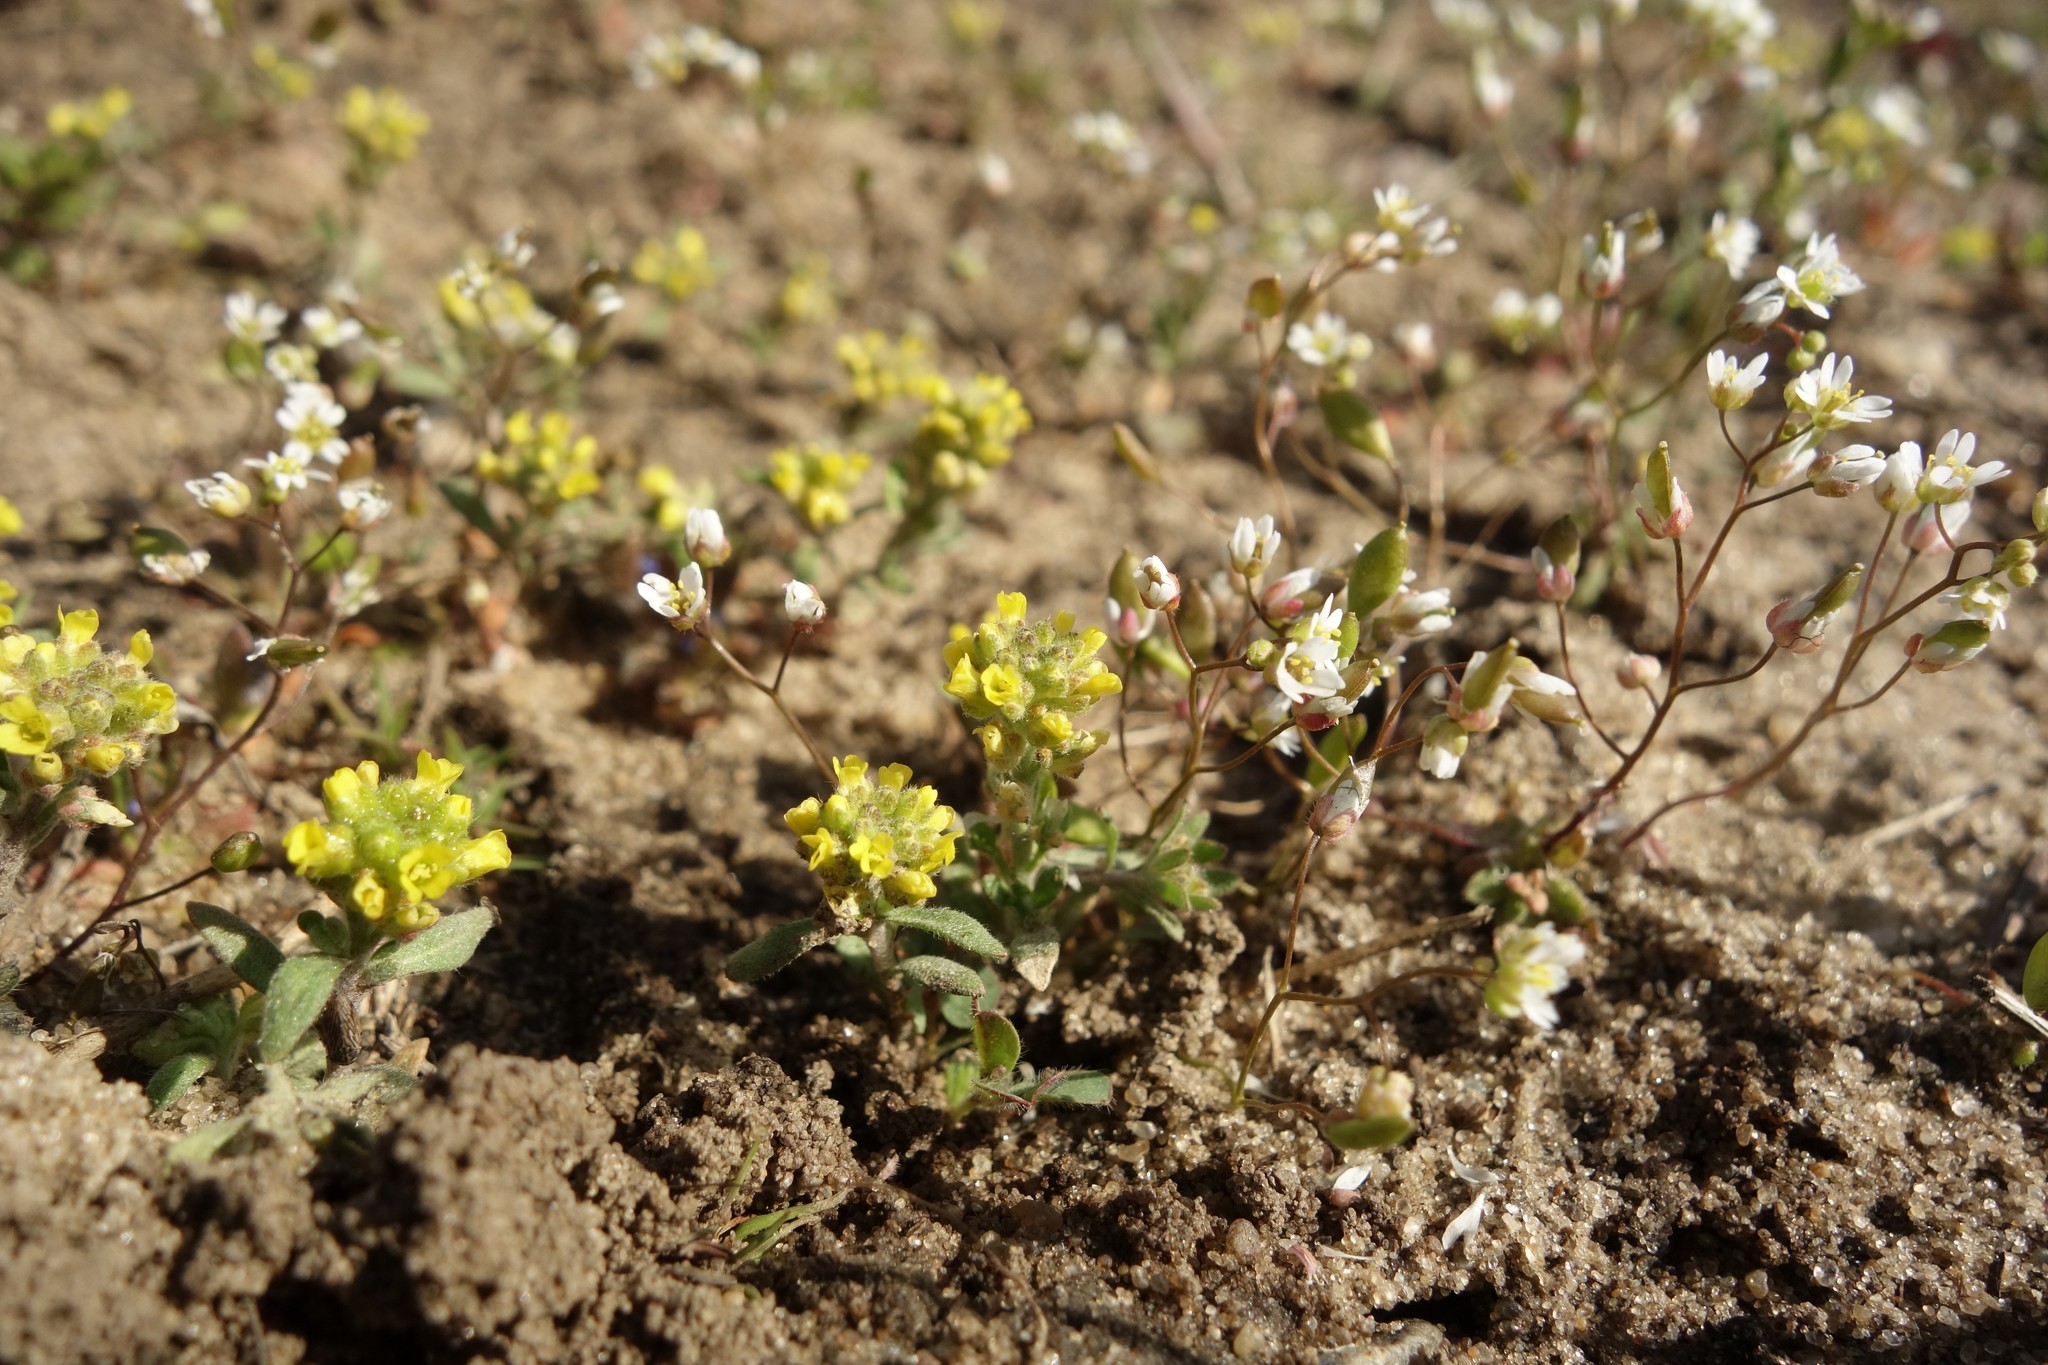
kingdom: Plantae
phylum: Tracheophyta
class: Magnoliopsida
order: Brassicales
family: Brassicaceae
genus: Alyssum
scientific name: Alyssum turkestanicum
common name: Desert alyssum
